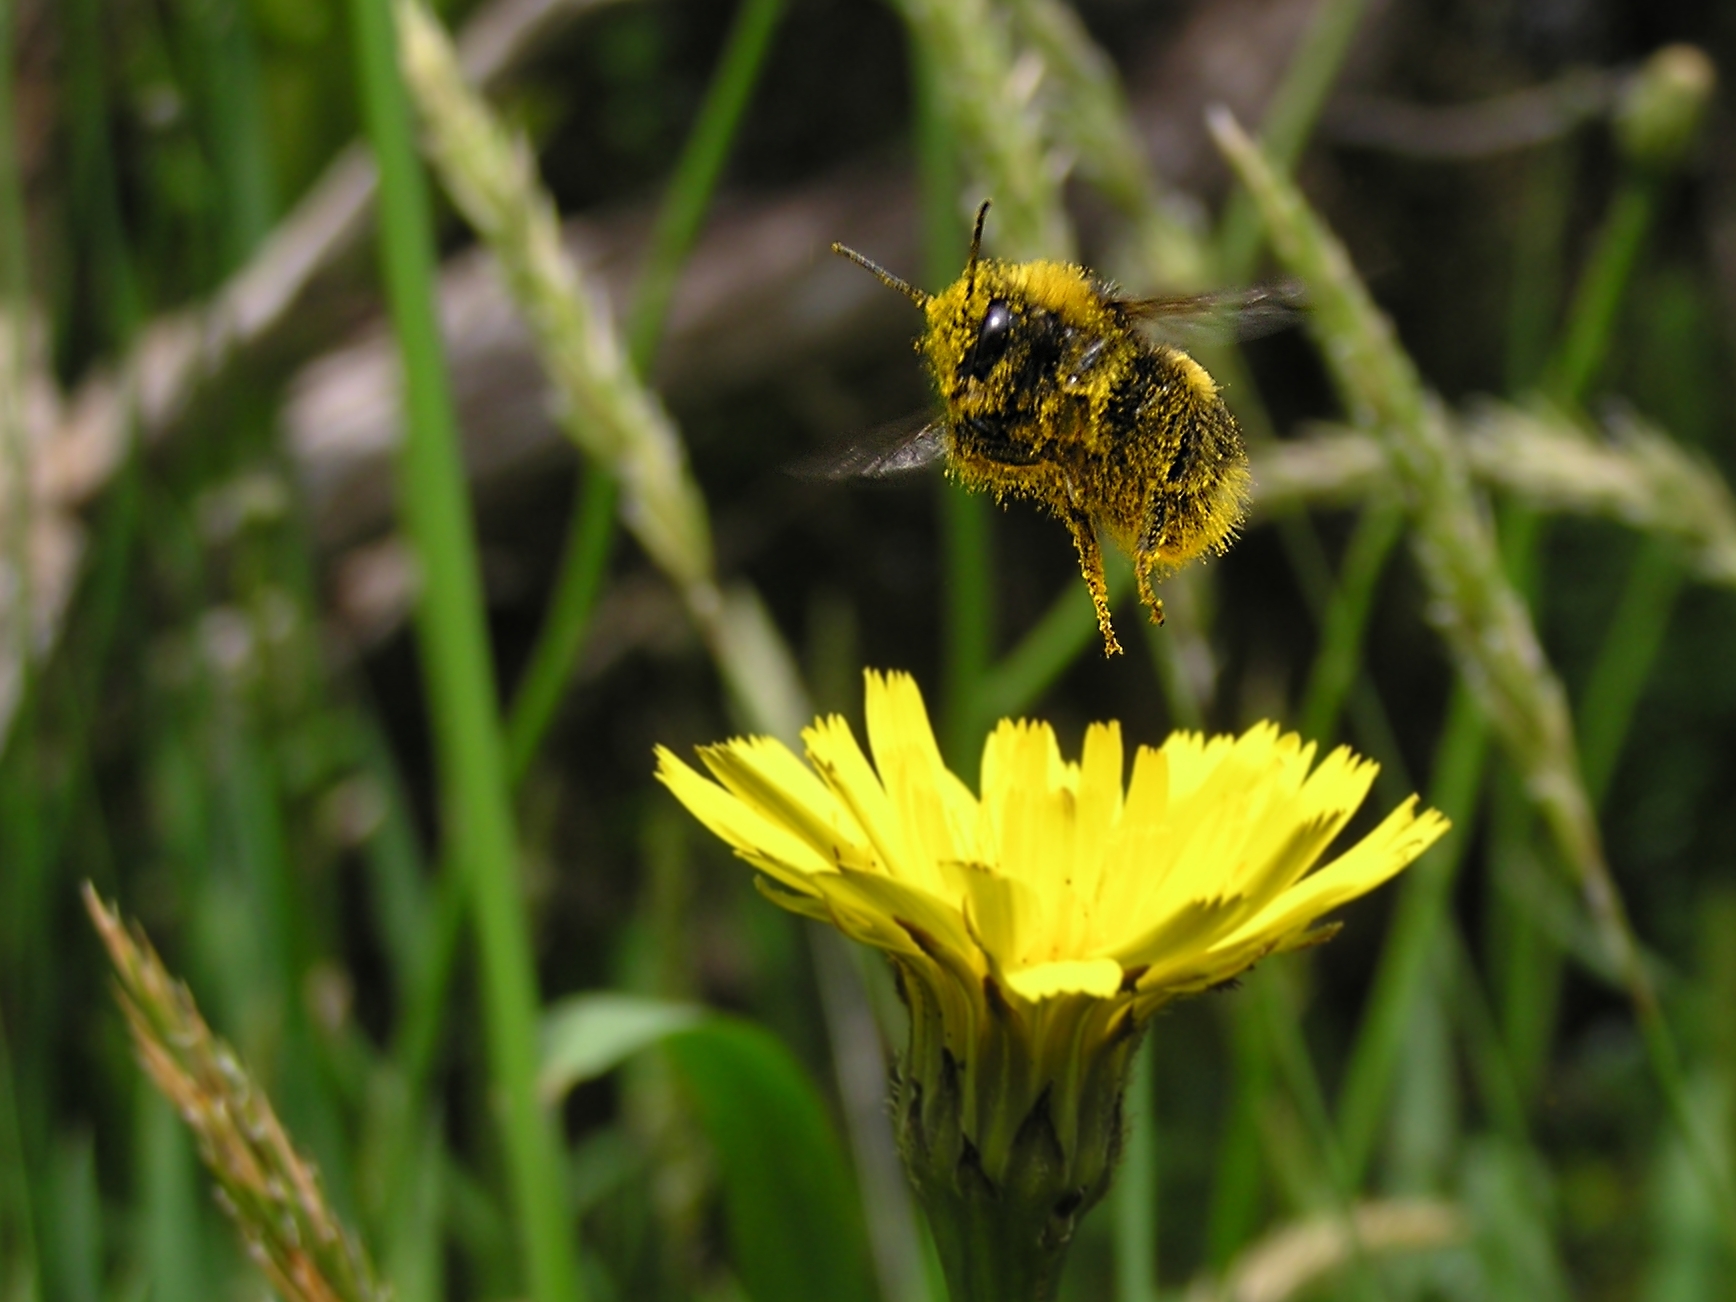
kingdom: Animalia
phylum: Arthropoda
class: Insecta
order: Hymenoptera
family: Apidae
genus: Bombus
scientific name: Bombus terrestris
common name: Buff-tailed bumblebee
